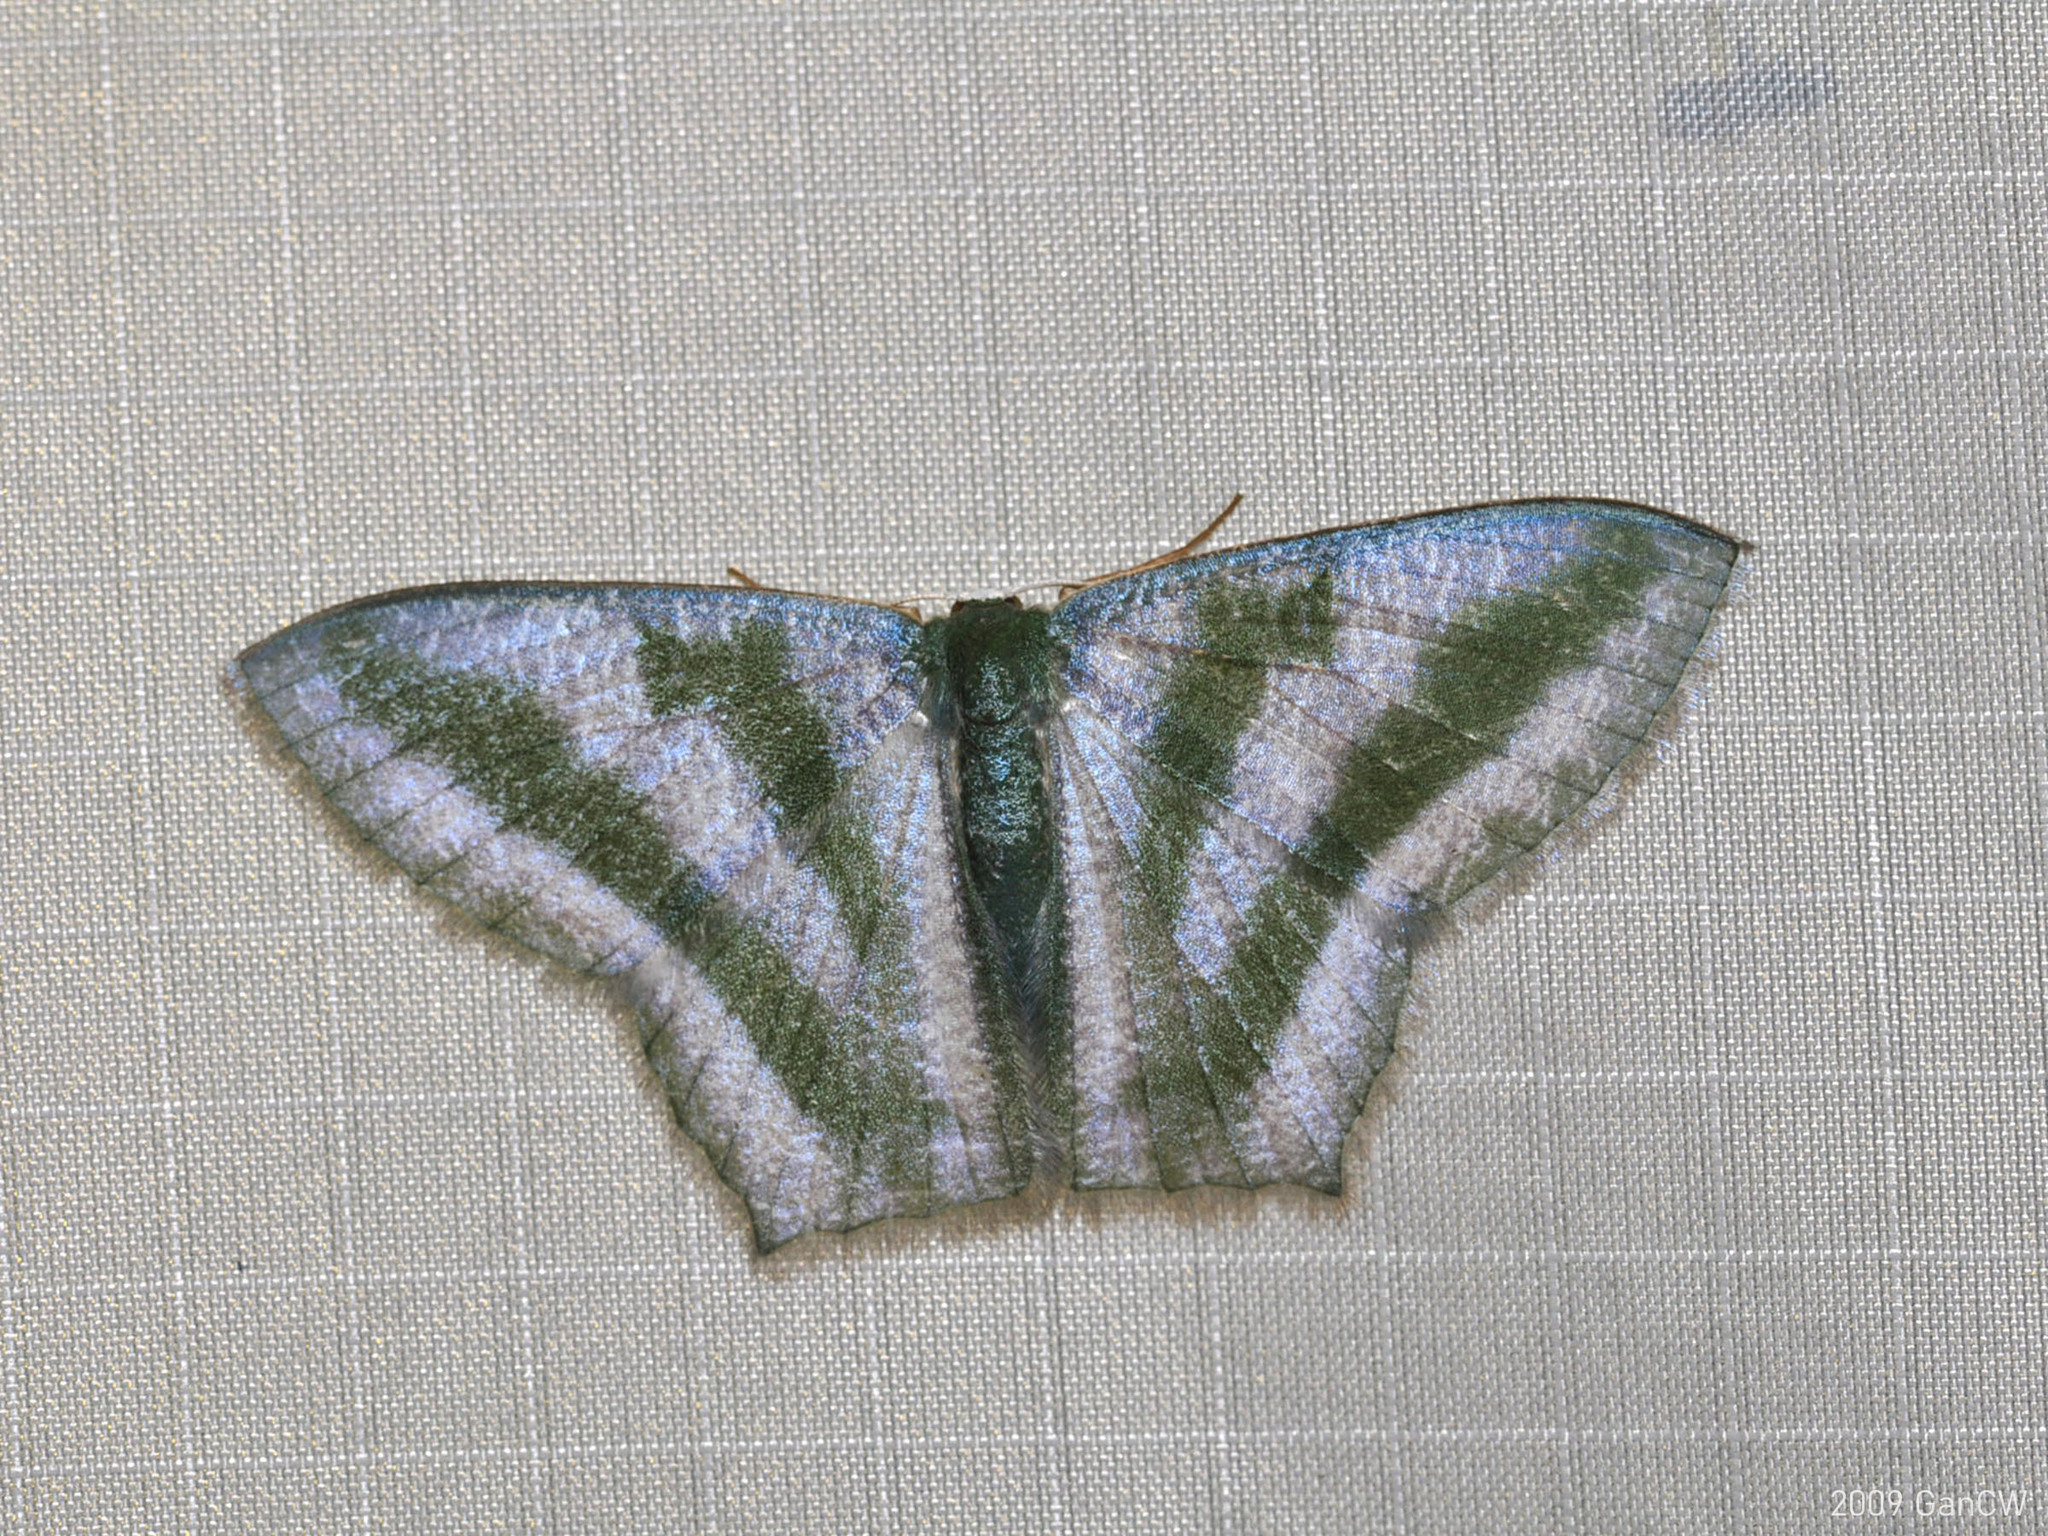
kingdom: Animalia
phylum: Arthropoda
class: Insecta
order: Lepidoptera
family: Geometridae
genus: Maxates
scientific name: Maxates thetydaria
